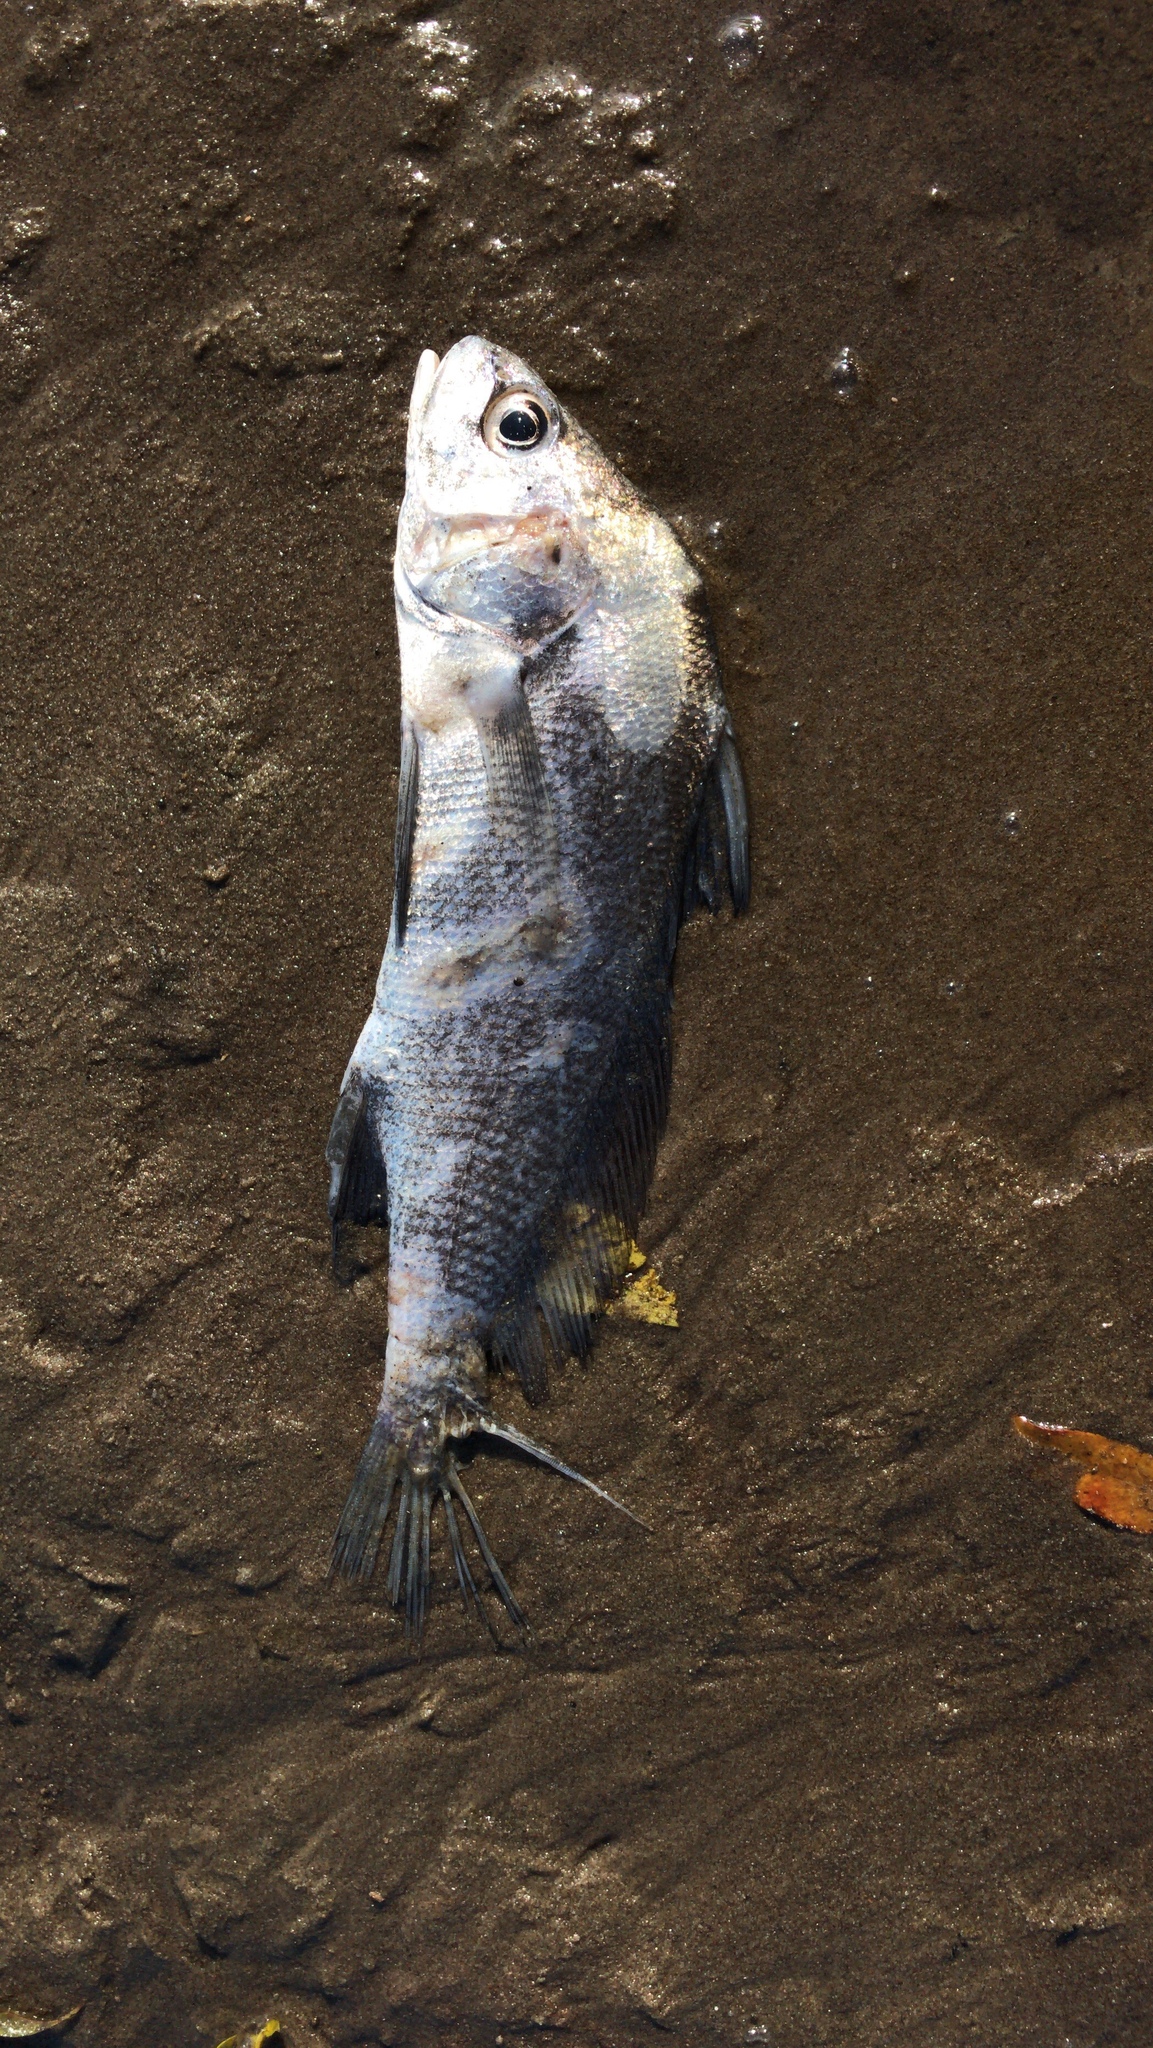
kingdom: Animalia
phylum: Chordata
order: Perciformes
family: Sciaenidae
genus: Aplodinotus
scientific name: Aplodinotus grunniens
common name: Freshwater drum
